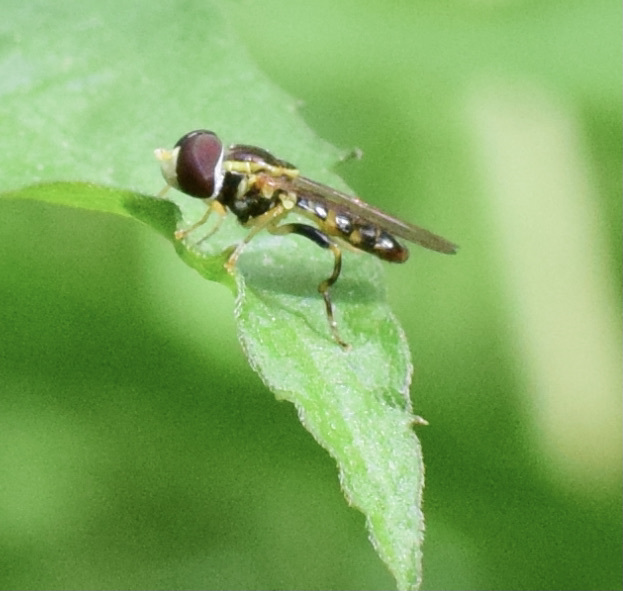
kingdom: Animalia
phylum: Arthropoda
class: Insecta
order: Diptera
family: Syrphidae
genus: Toxomerus
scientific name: Toxomerus geminatus
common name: Eastern calligrapher
